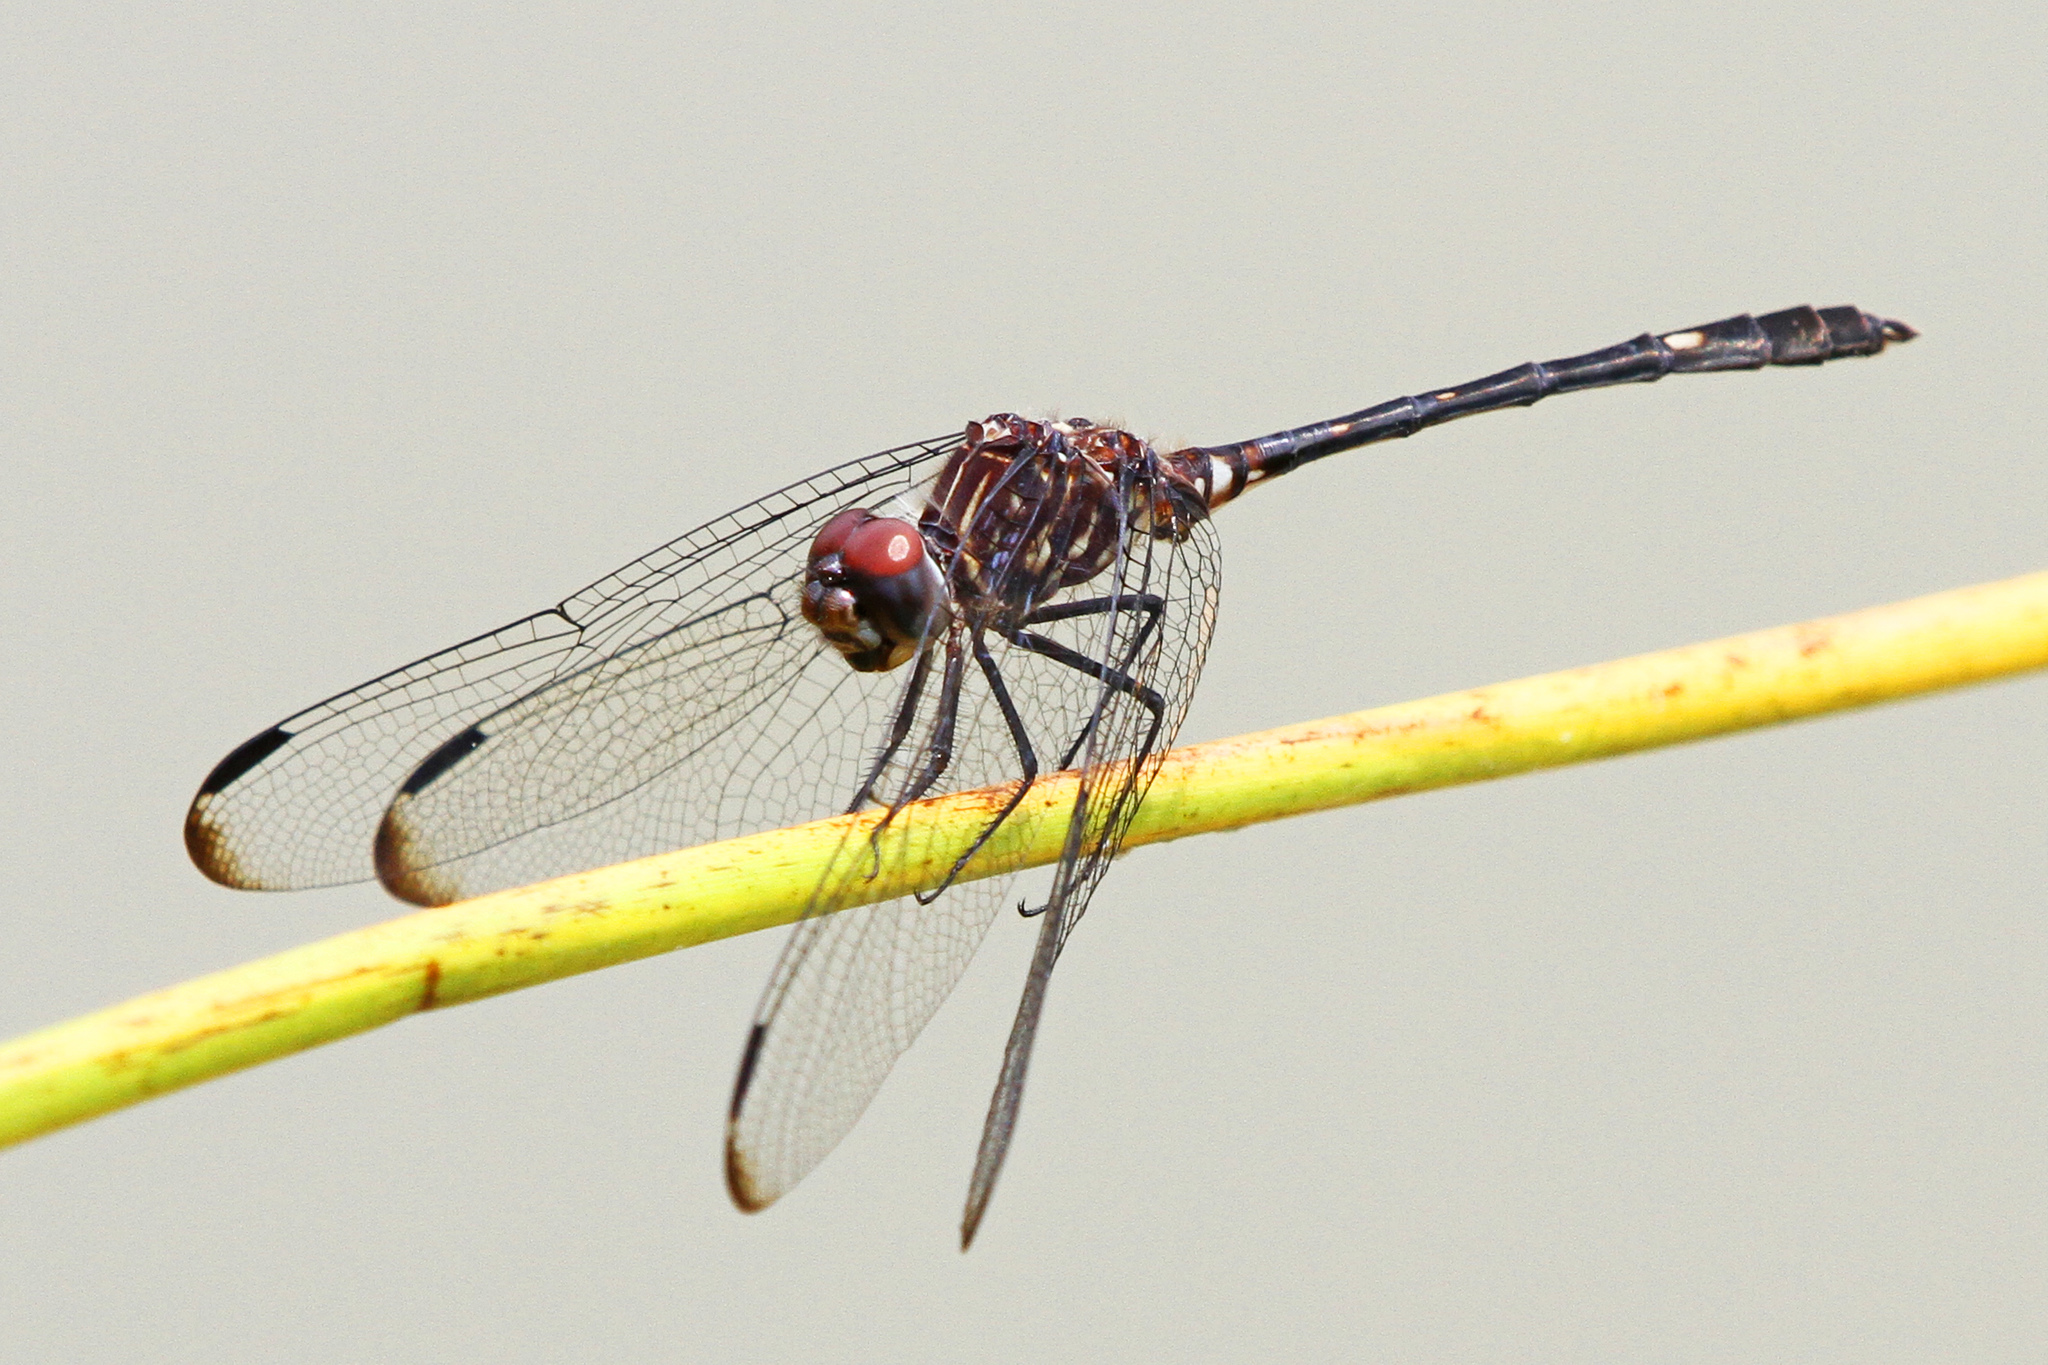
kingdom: Animalia
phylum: Arthropoda
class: Insecta
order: Odonata
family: Libellulidae
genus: Dythemis
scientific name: Dythemis velox
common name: Swift setwing
